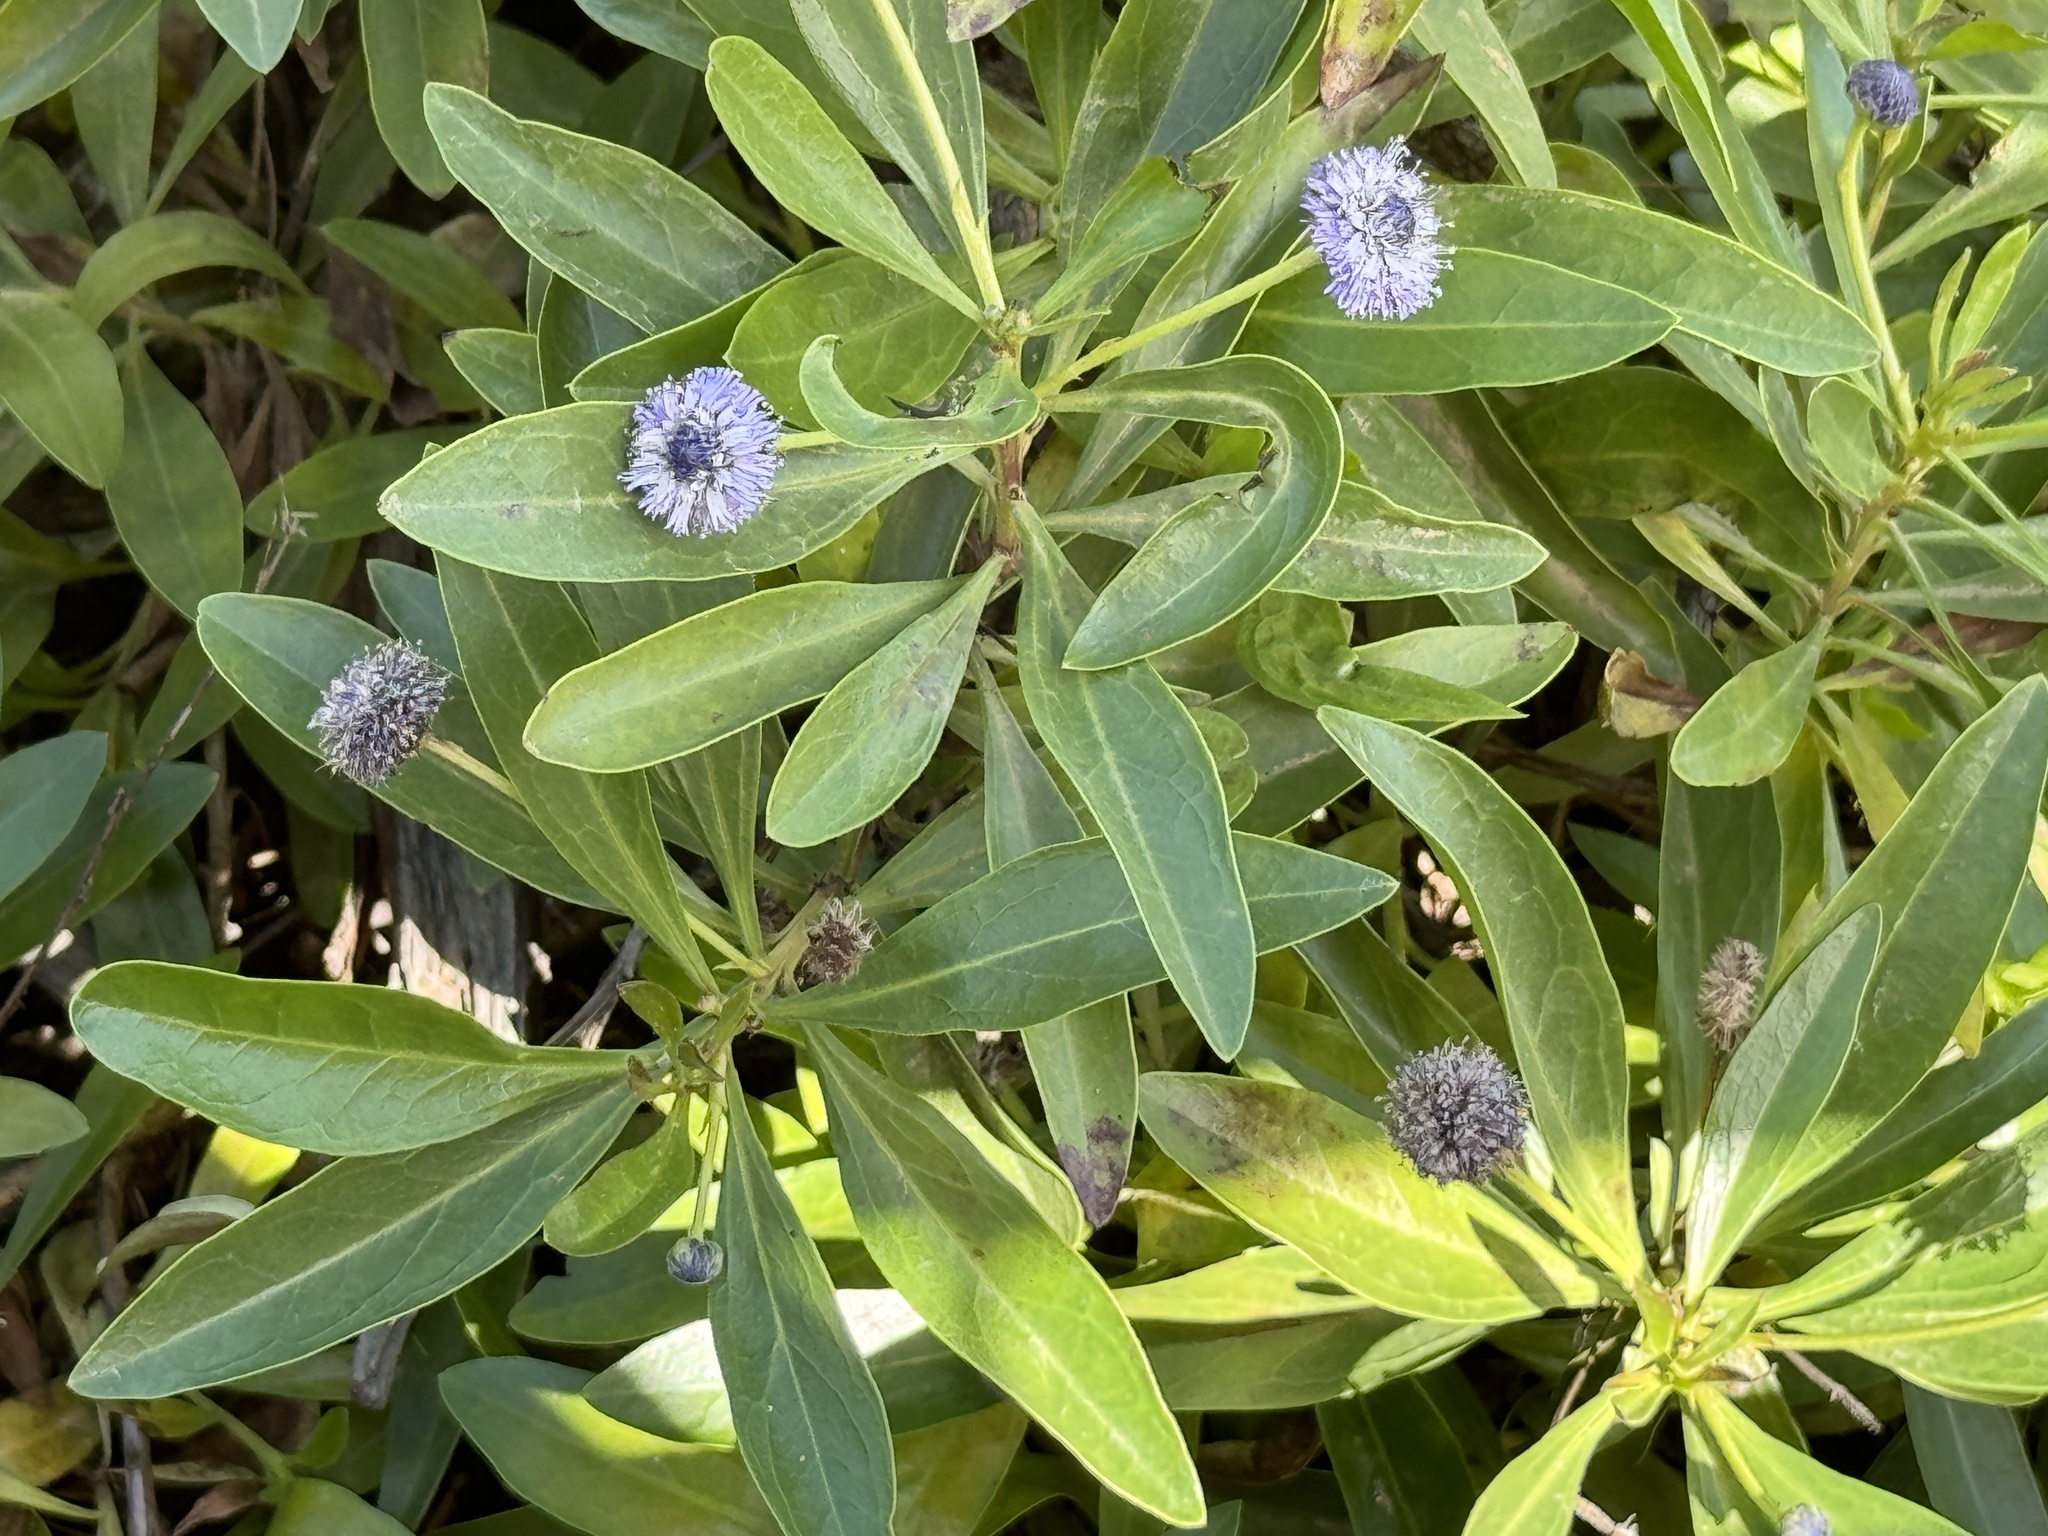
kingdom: Plantae
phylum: Tracheophyta
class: Magnoliopsida
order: Lamiales
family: Plantaginaceae
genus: Globularia
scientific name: Globularia amygdalifolia
